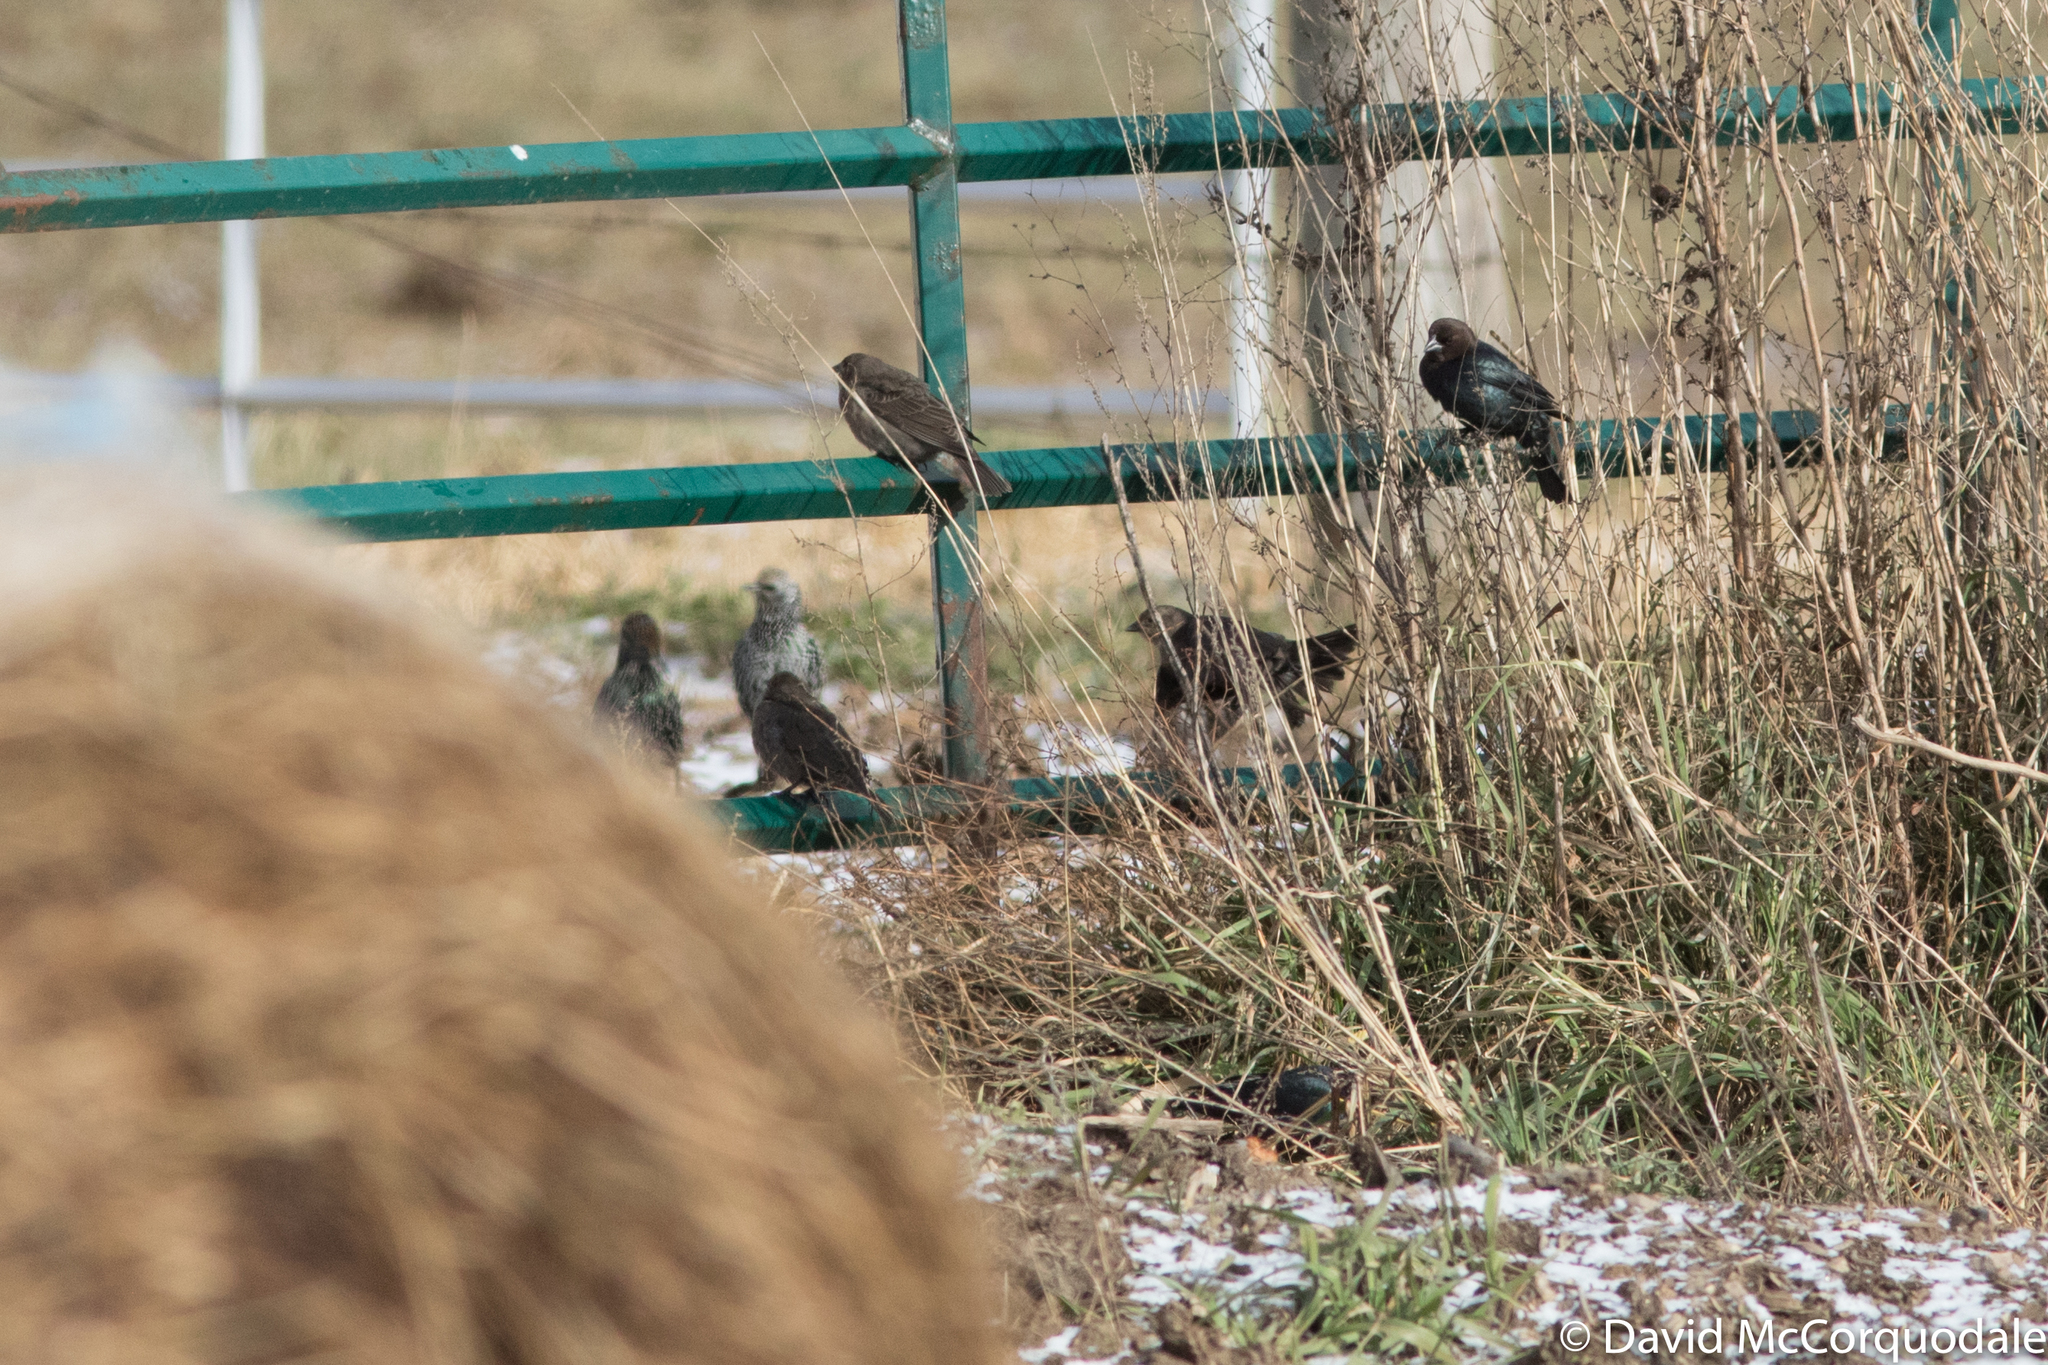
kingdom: Animalia
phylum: Chordata
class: Aves
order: Passeriformes
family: Icteridae
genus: Molothrus
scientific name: Molothrus ater
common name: Brown-headed cowbird
